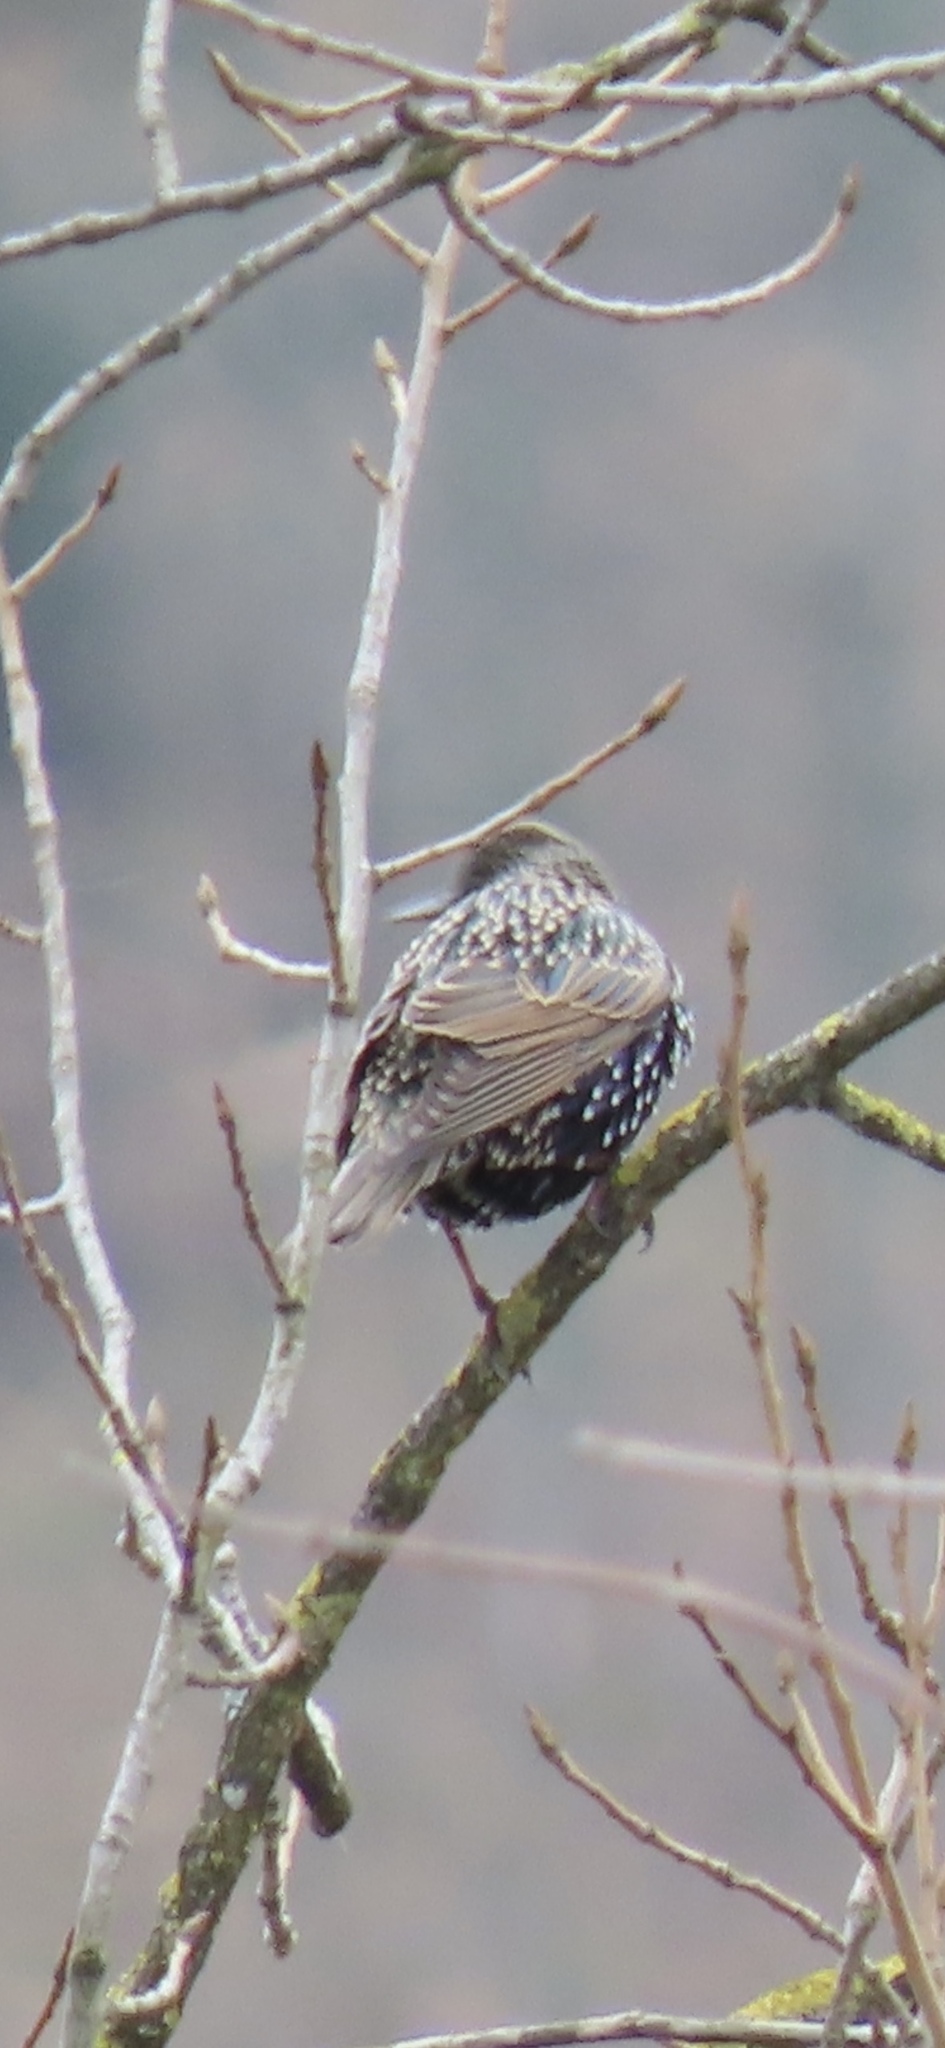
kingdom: Animalia
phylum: Chordata
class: Aves
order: Passeriformes
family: Sturnidae
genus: Sturnus
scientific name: Sturnus vulgaris
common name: Common starling
